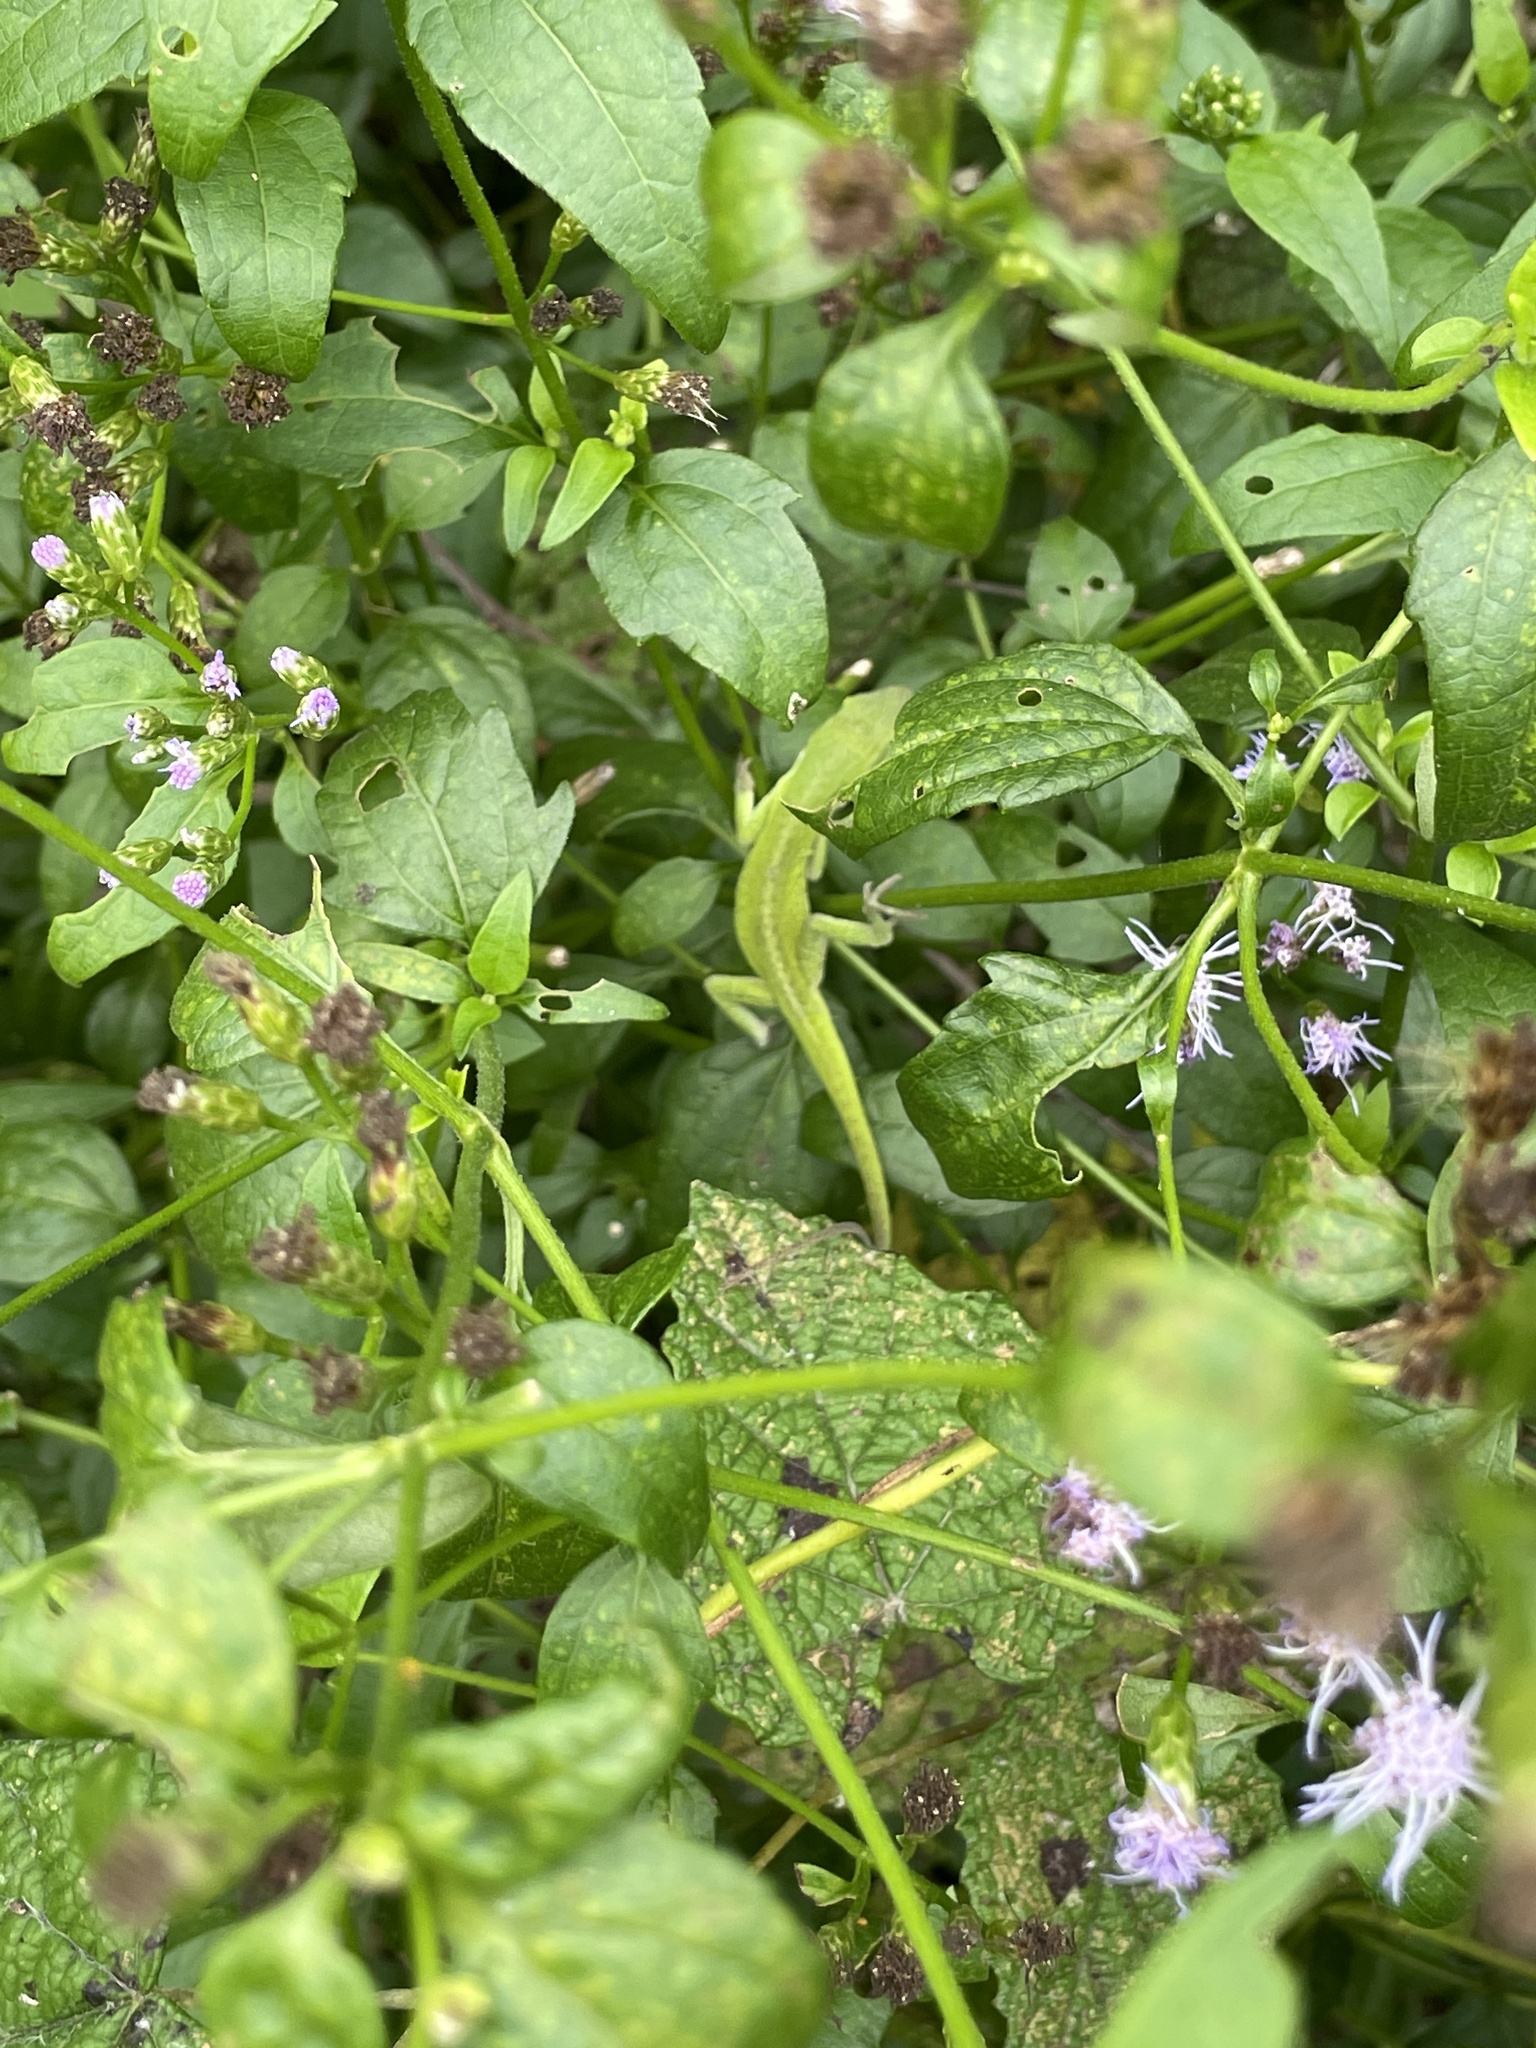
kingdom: Animalia
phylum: Chordata
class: Squamata
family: Dactyloidae
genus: Anolis
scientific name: Anolis carolinensis
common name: Green anole
